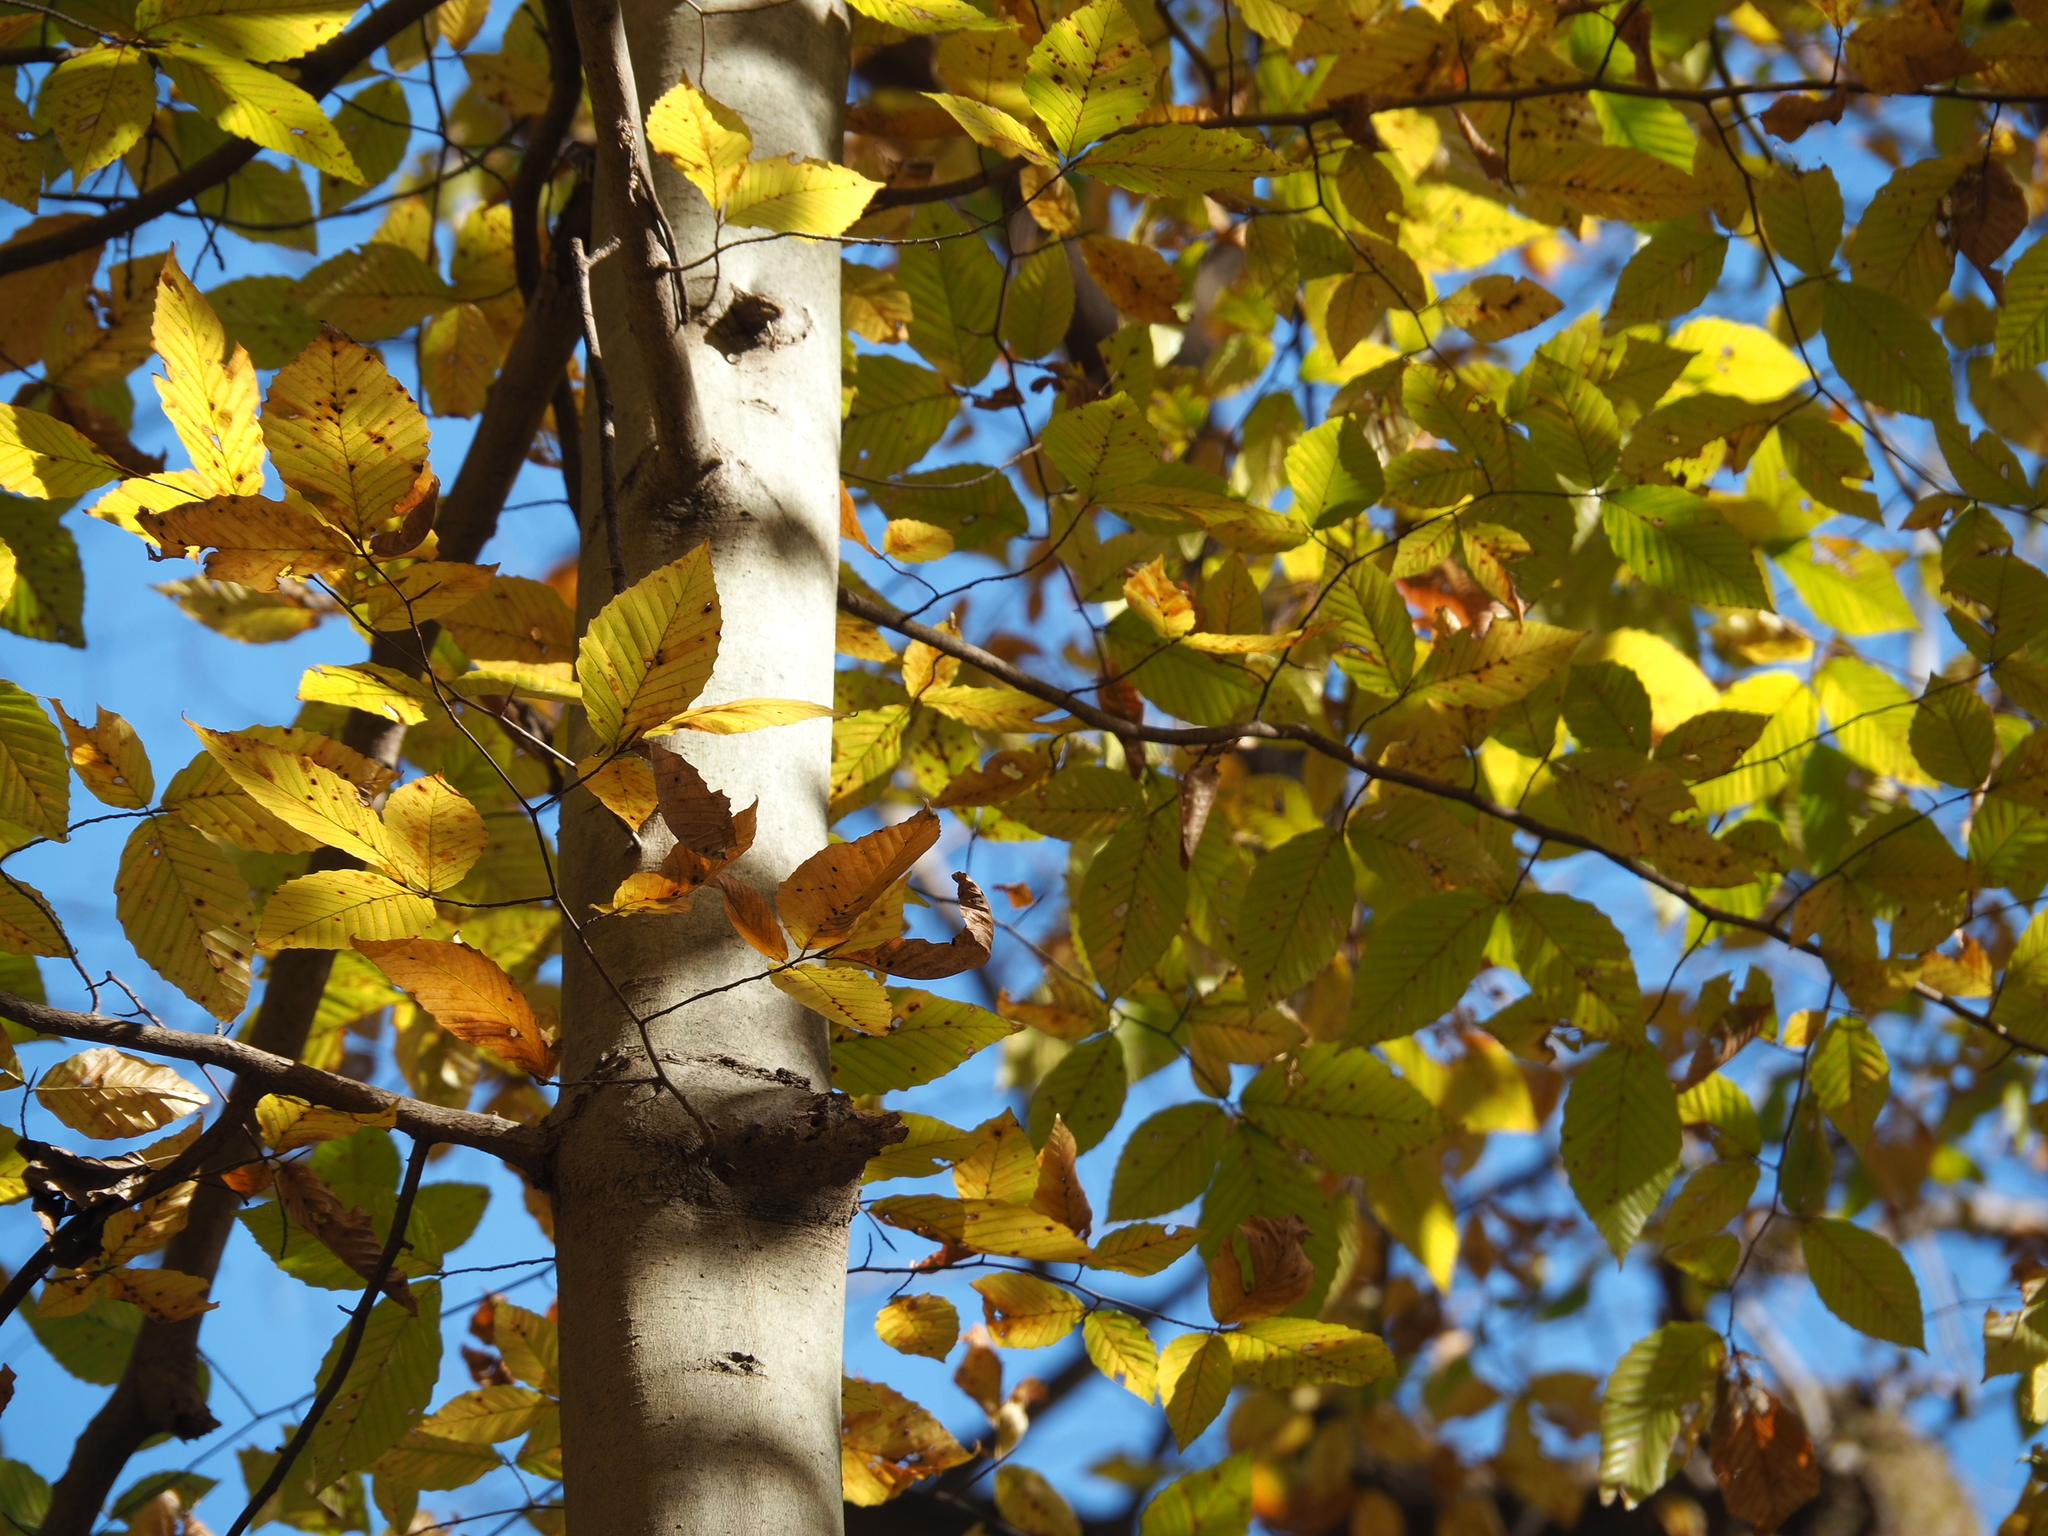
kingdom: Plantae
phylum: Tracheophyta
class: Magnoliopsida
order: Fagales
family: Fagaceae
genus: Fagus
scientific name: Fagus grandifolia
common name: American beech
